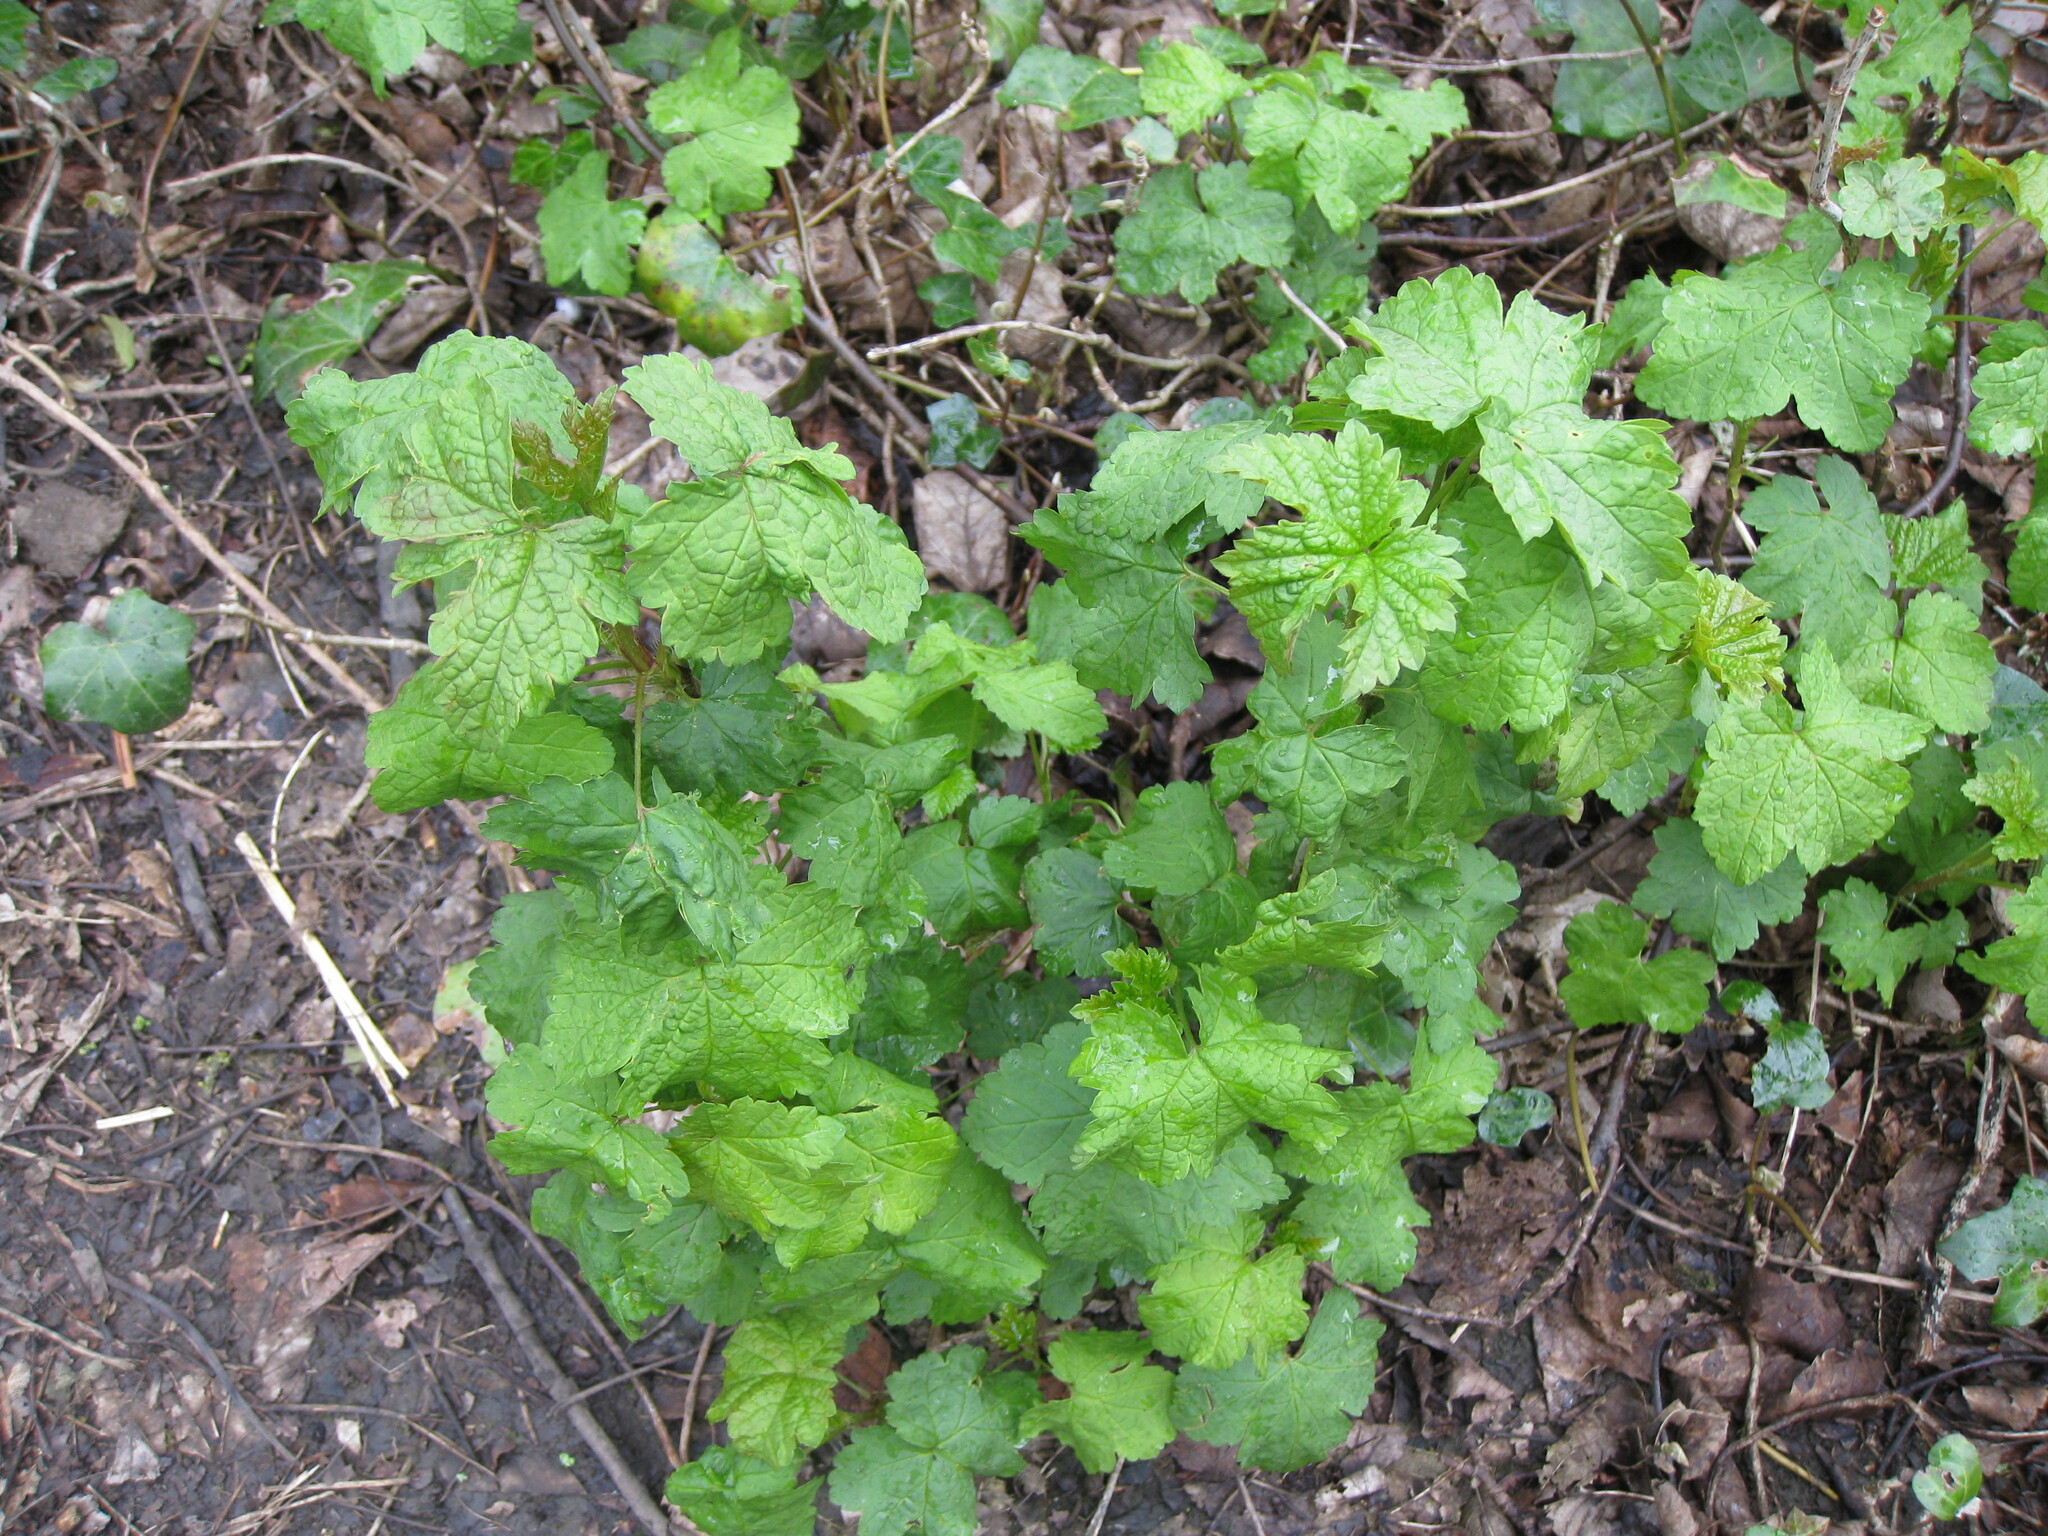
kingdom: Plantae
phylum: Tracheophyta
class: Magnoliopsida
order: Brassicales
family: Brassicaceae
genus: Alliaria
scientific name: Alliaria petiolata
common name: Garlic mustard
